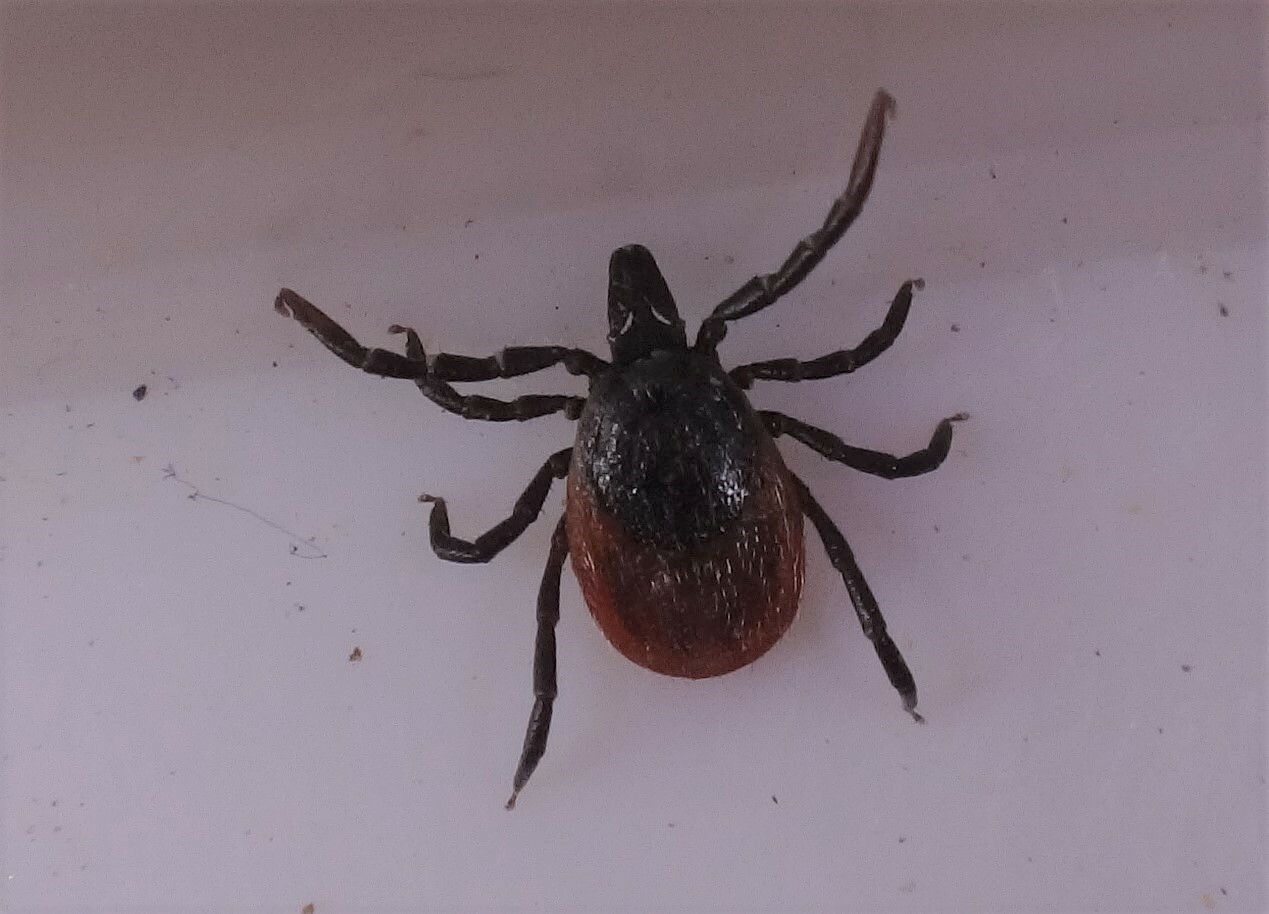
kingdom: Animalia
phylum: Arthropoda
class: Arachnida
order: Ixodida
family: Ixodidae
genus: Ixodes
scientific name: Ixodes ricinus
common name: Castor bean tick
